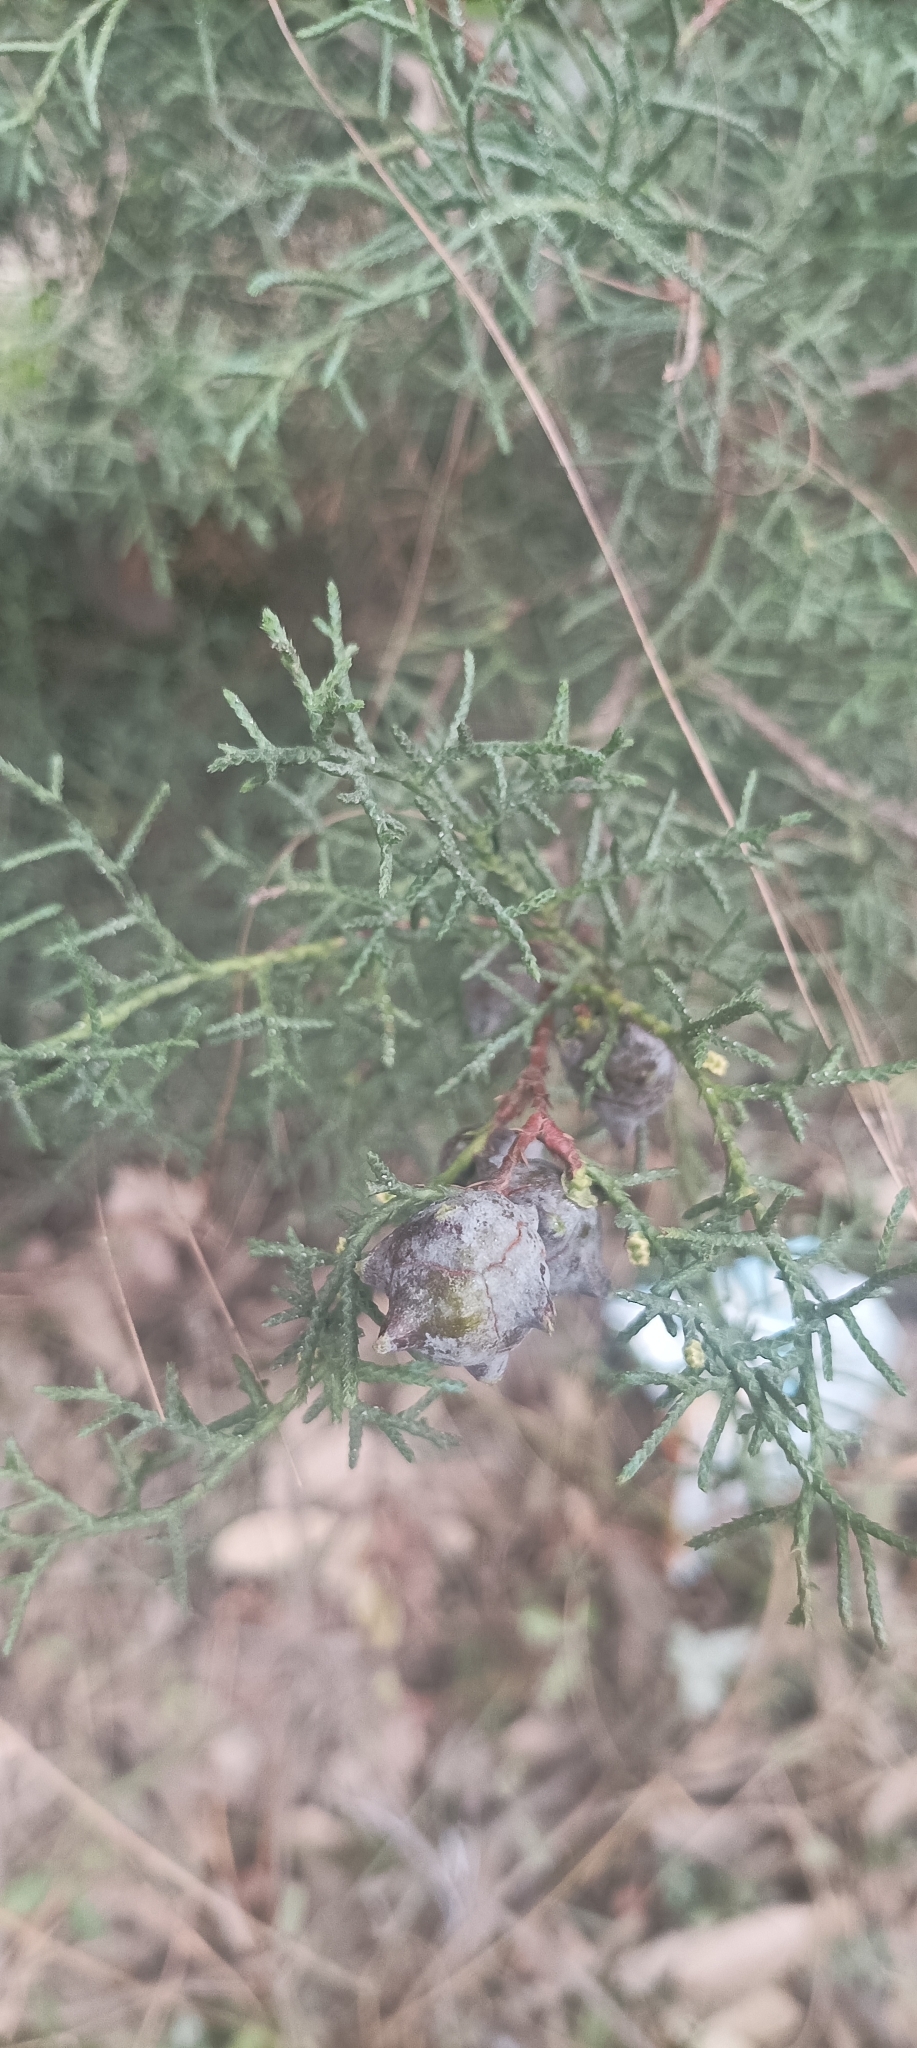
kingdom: Plantae
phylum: Tracheophyta
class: Pinopsida
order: Pinales
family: Cupressaceae
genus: Cupressus
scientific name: Cupressus torulosa
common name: Himalayan cypress
